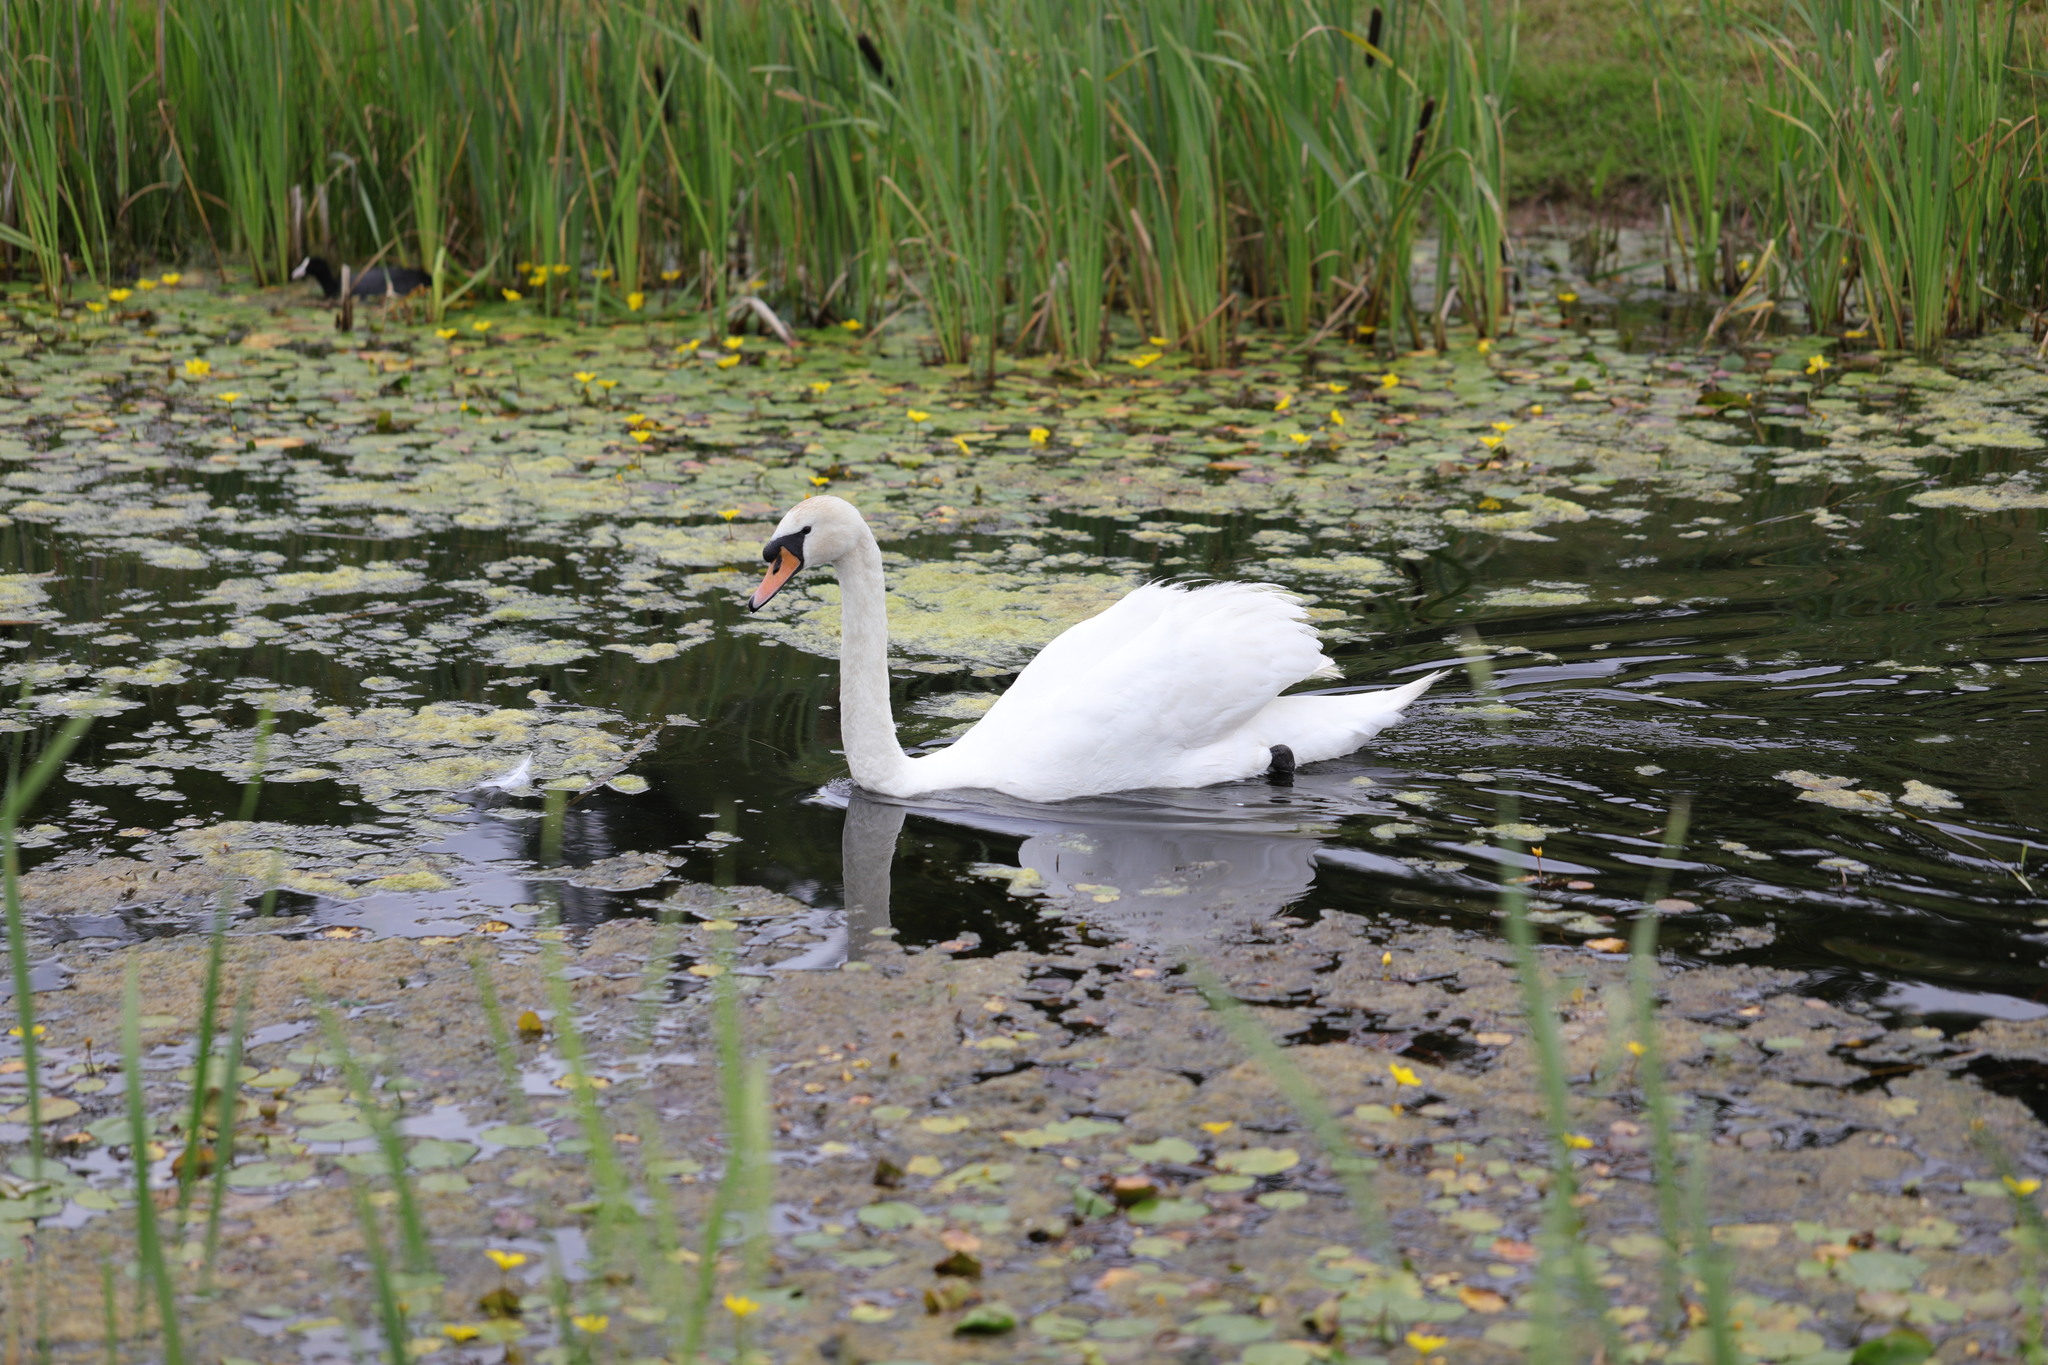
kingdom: Animalia
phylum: Chordata
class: Aves
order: Anseriformes
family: Anatidae
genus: Cygnus
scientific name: Cygnus olor
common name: Mute swan
